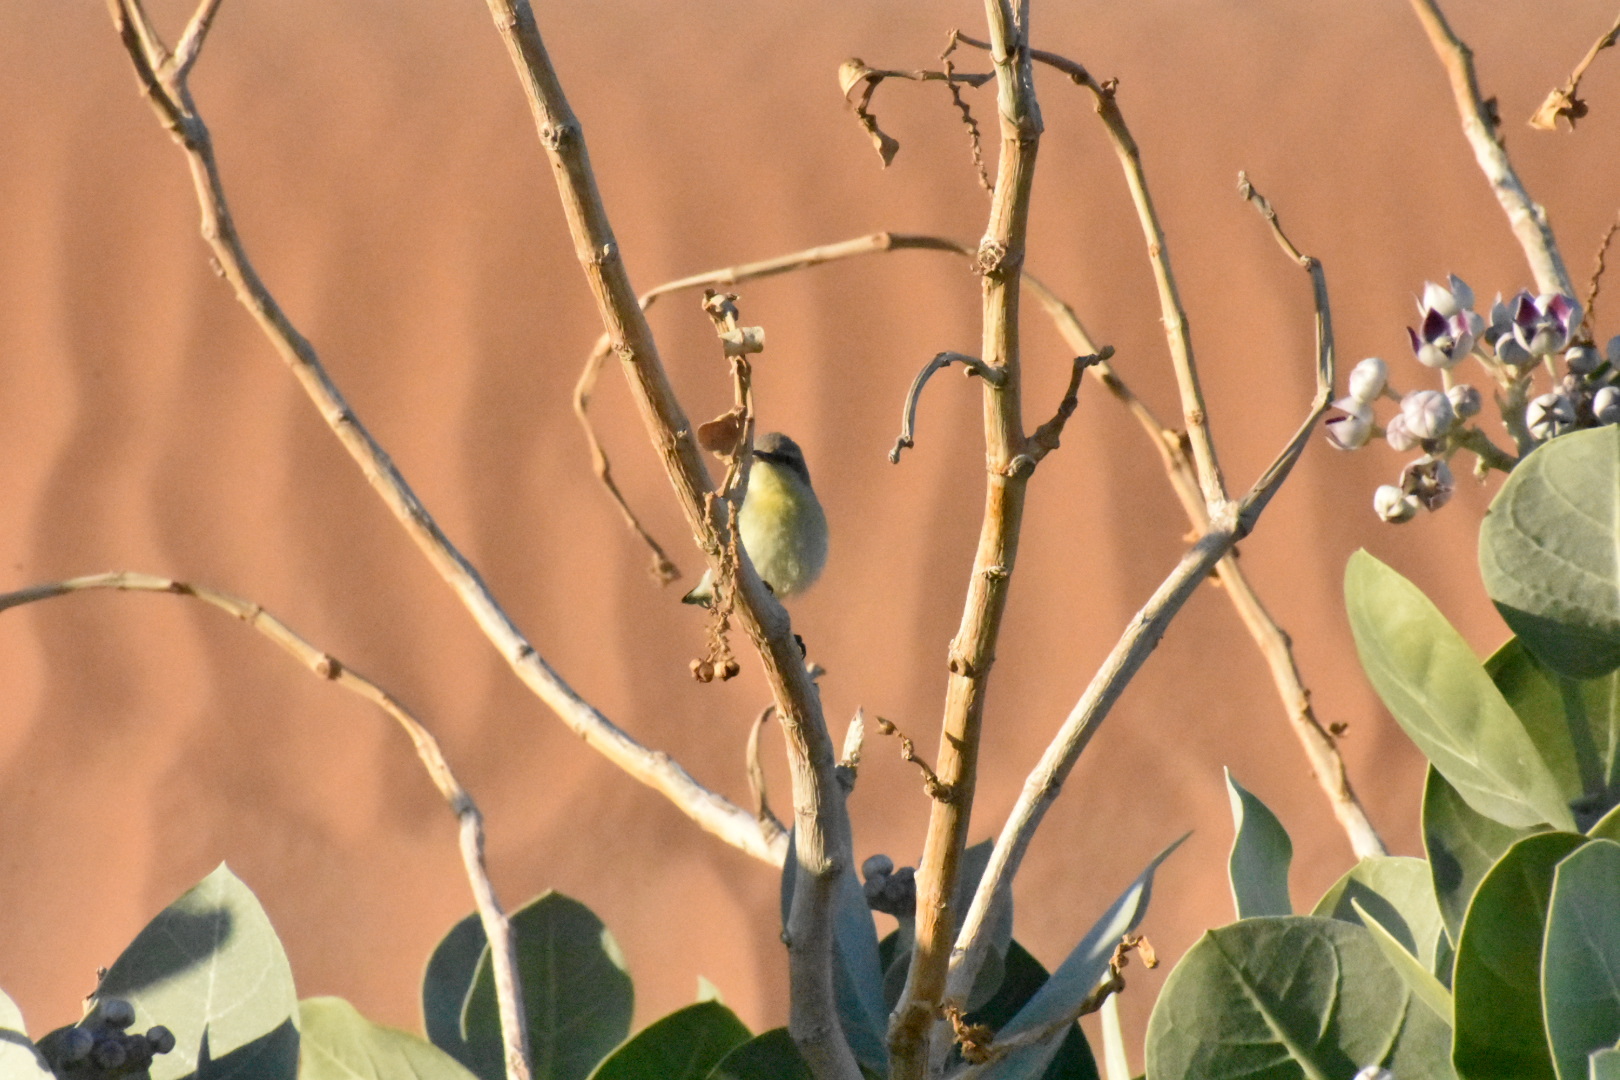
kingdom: Animalia
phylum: Chordata
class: Aves
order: Passeriformes
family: Nectariniidae
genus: Cinnyris
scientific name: Cinnyris asiaticus
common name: Purple sunbird
